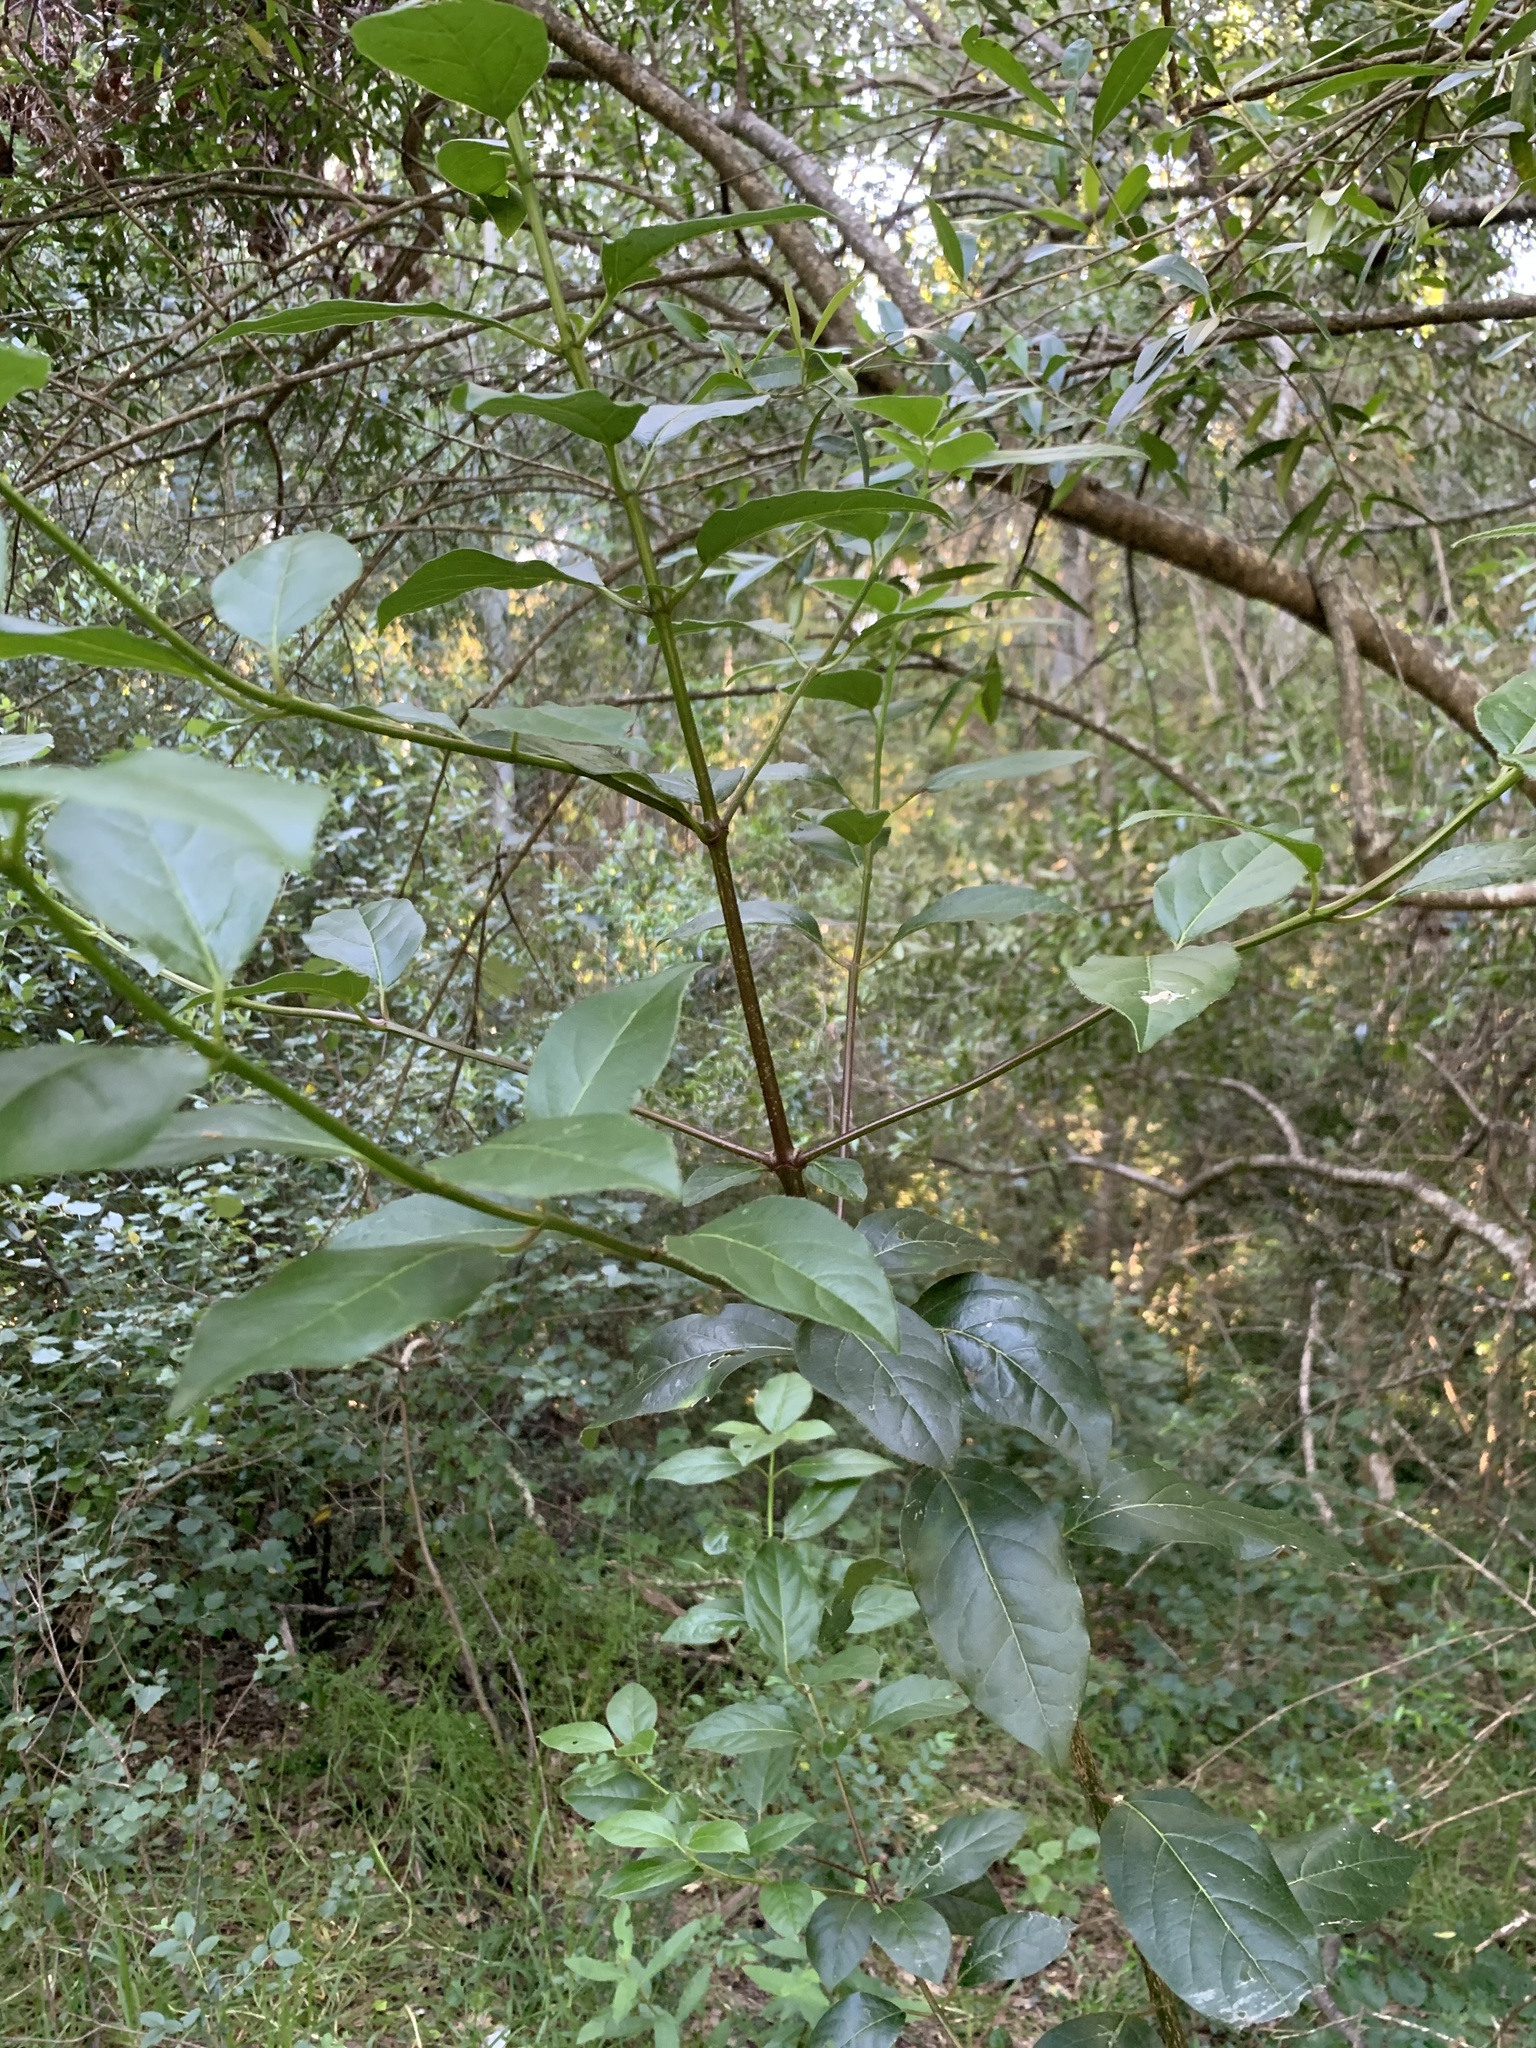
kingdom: Plantae
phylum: Tracheophyta
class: Magnoliopsida
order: Dipsacales
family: Viburnaceae
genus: Viburnum
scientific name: Viburnum tinus
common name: Laurustinus
